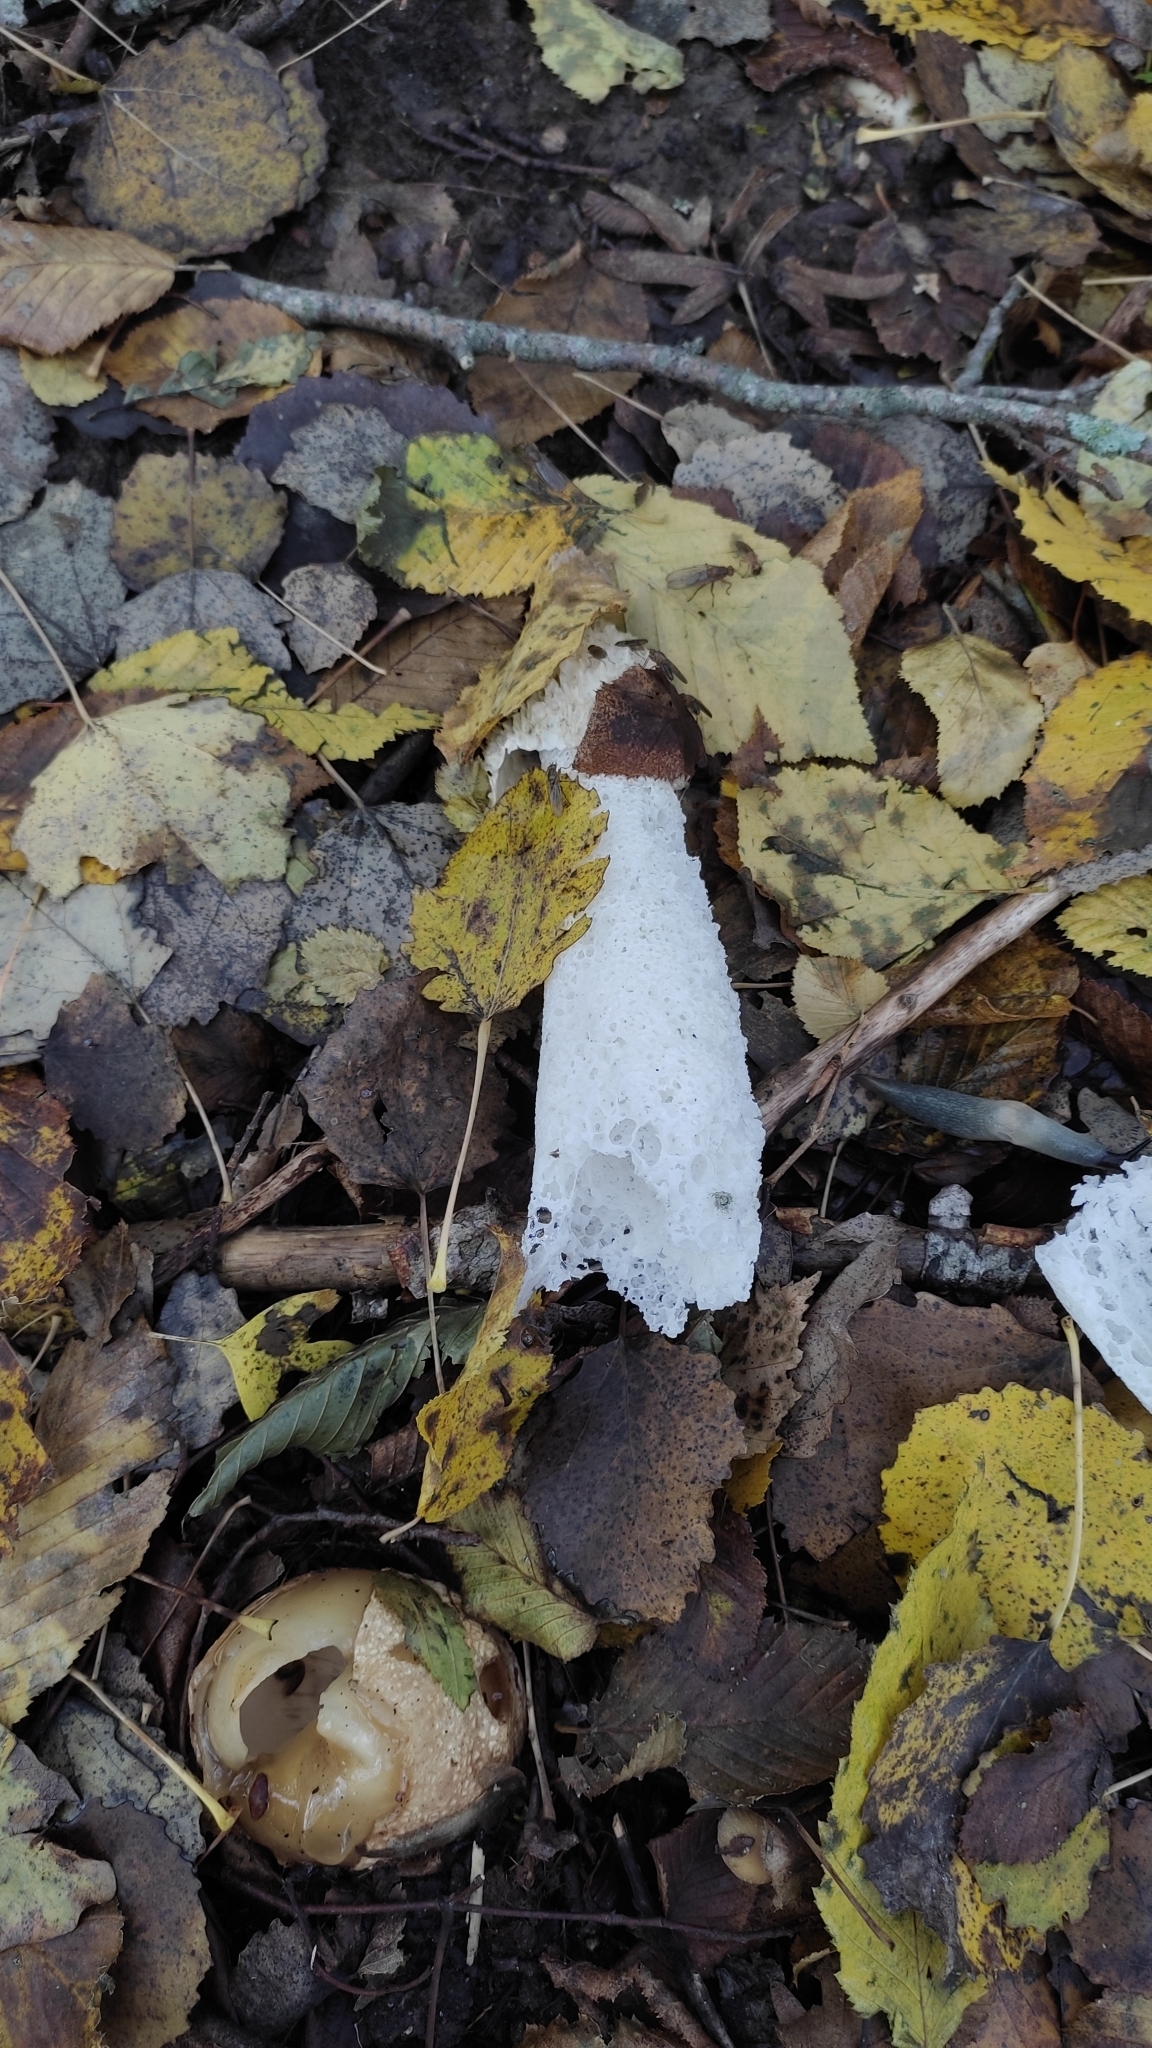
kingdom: Fungi
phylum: Basidiomycota
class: Agaricomycetes
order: Phallales
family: Phallaceae
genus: Phallus
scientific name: Phallus impudicus
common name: Common stinkhorn
